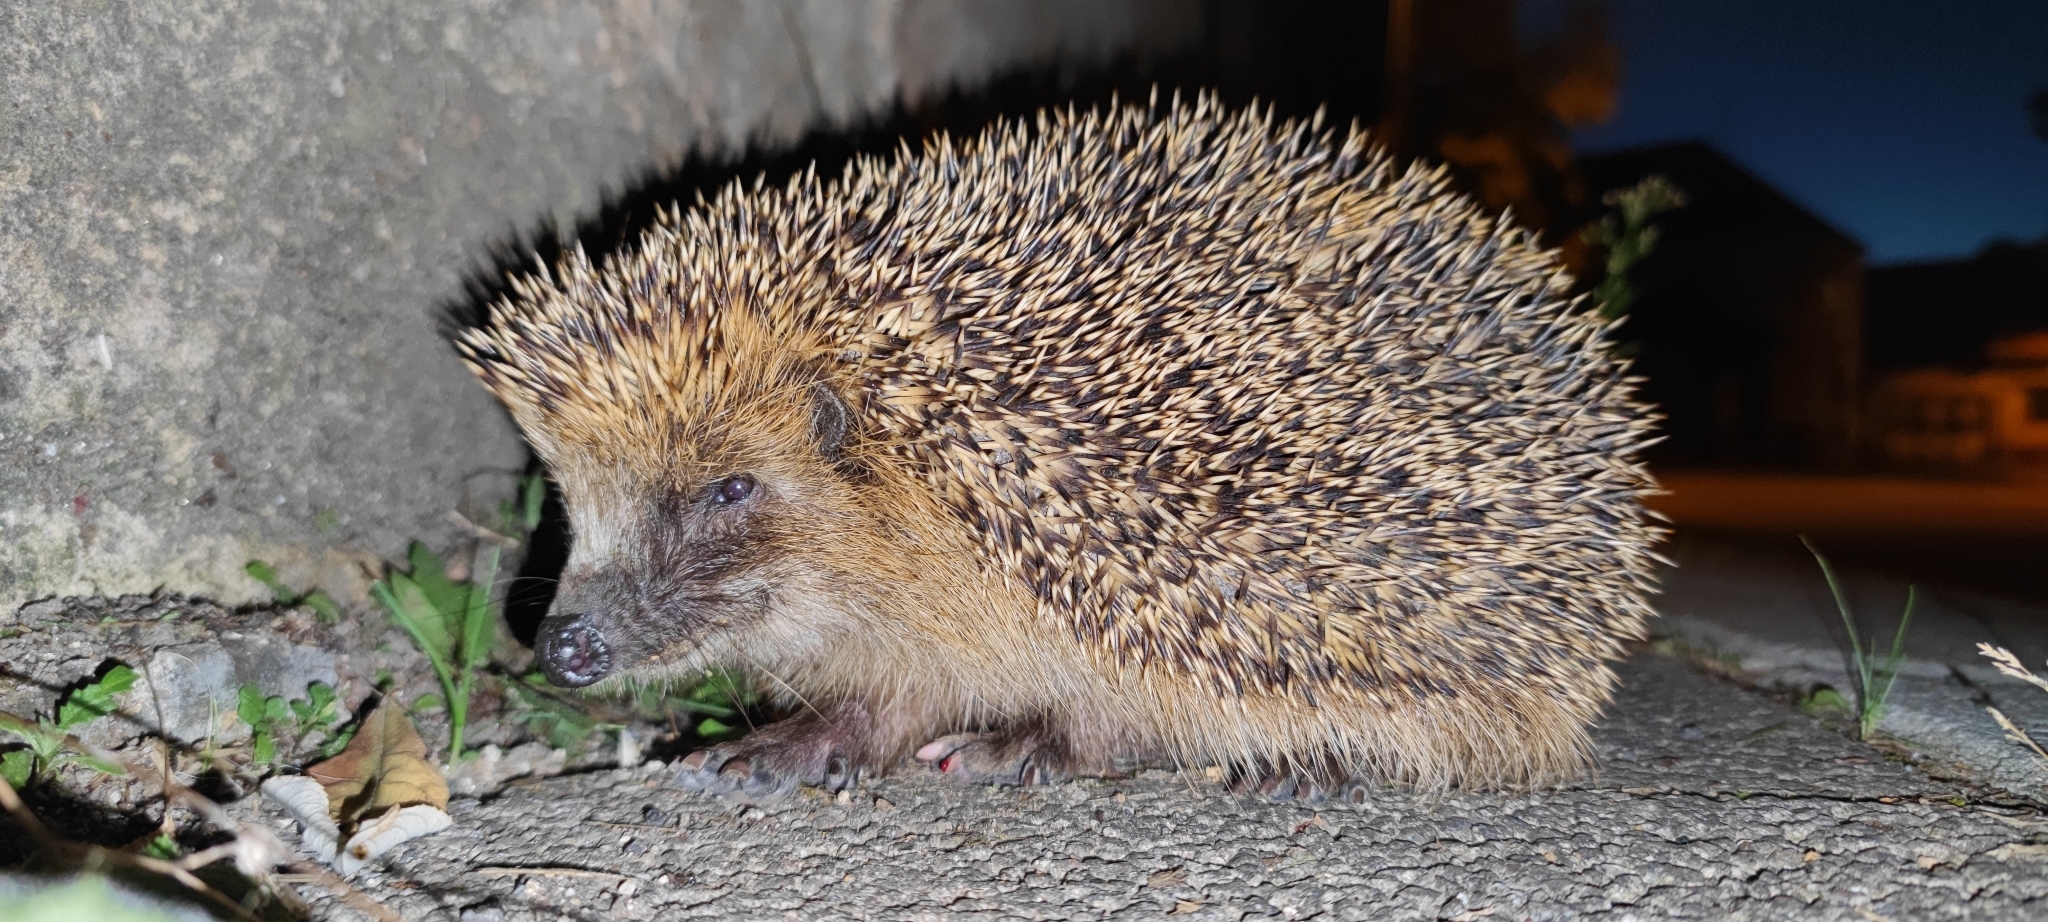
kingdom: Animalia
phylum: Chordata
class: Mammalia
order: Erinaceomorpha
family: Erinaceidae
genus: Erinaceus
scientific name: Erinaceus europaeus
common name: West european hedgehog
